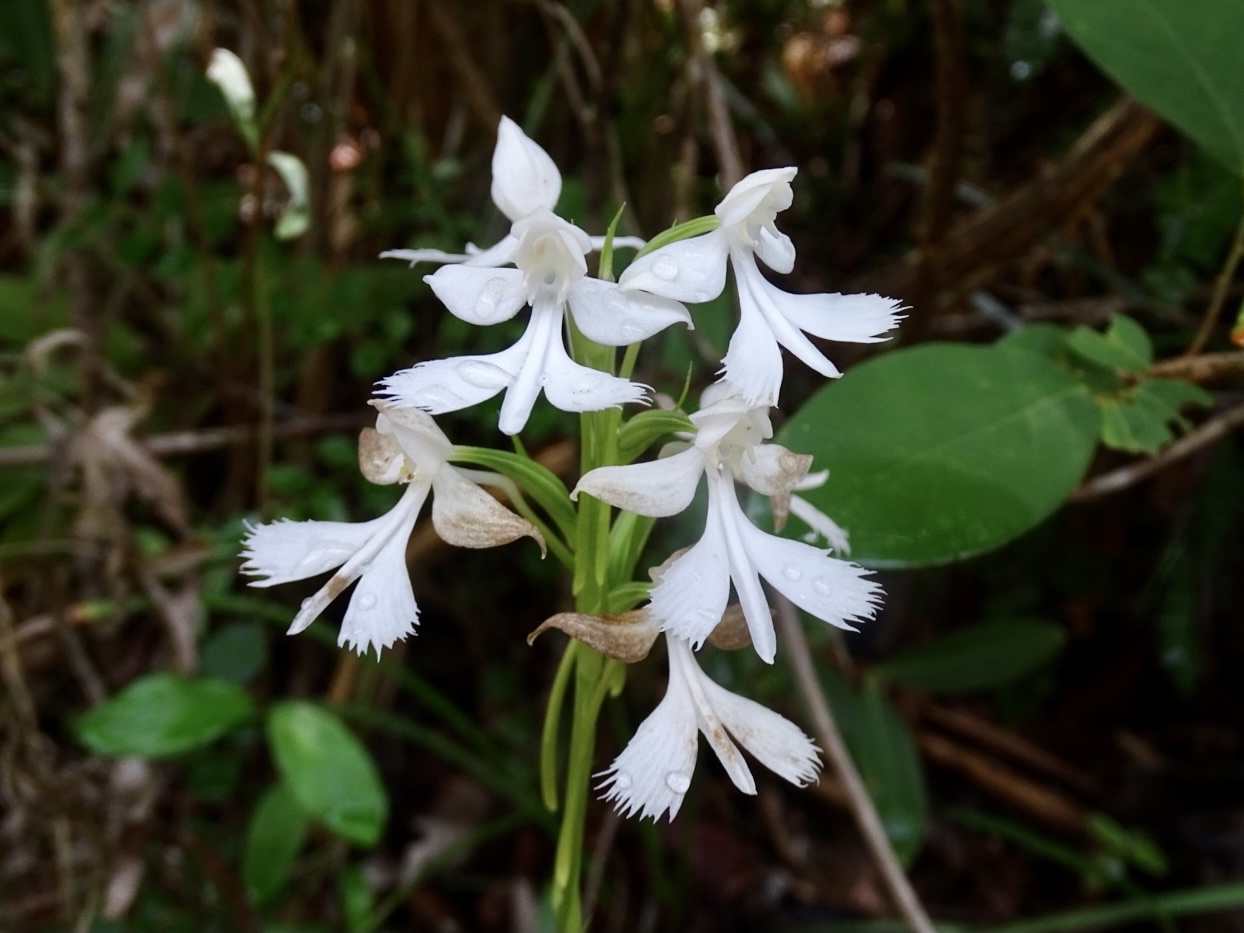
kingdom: Plantae
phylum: Tracheophyta
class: Liliopsida
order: Asparagales
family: Orchidaceae
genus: Habenaria
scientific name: Habenaria dentata
